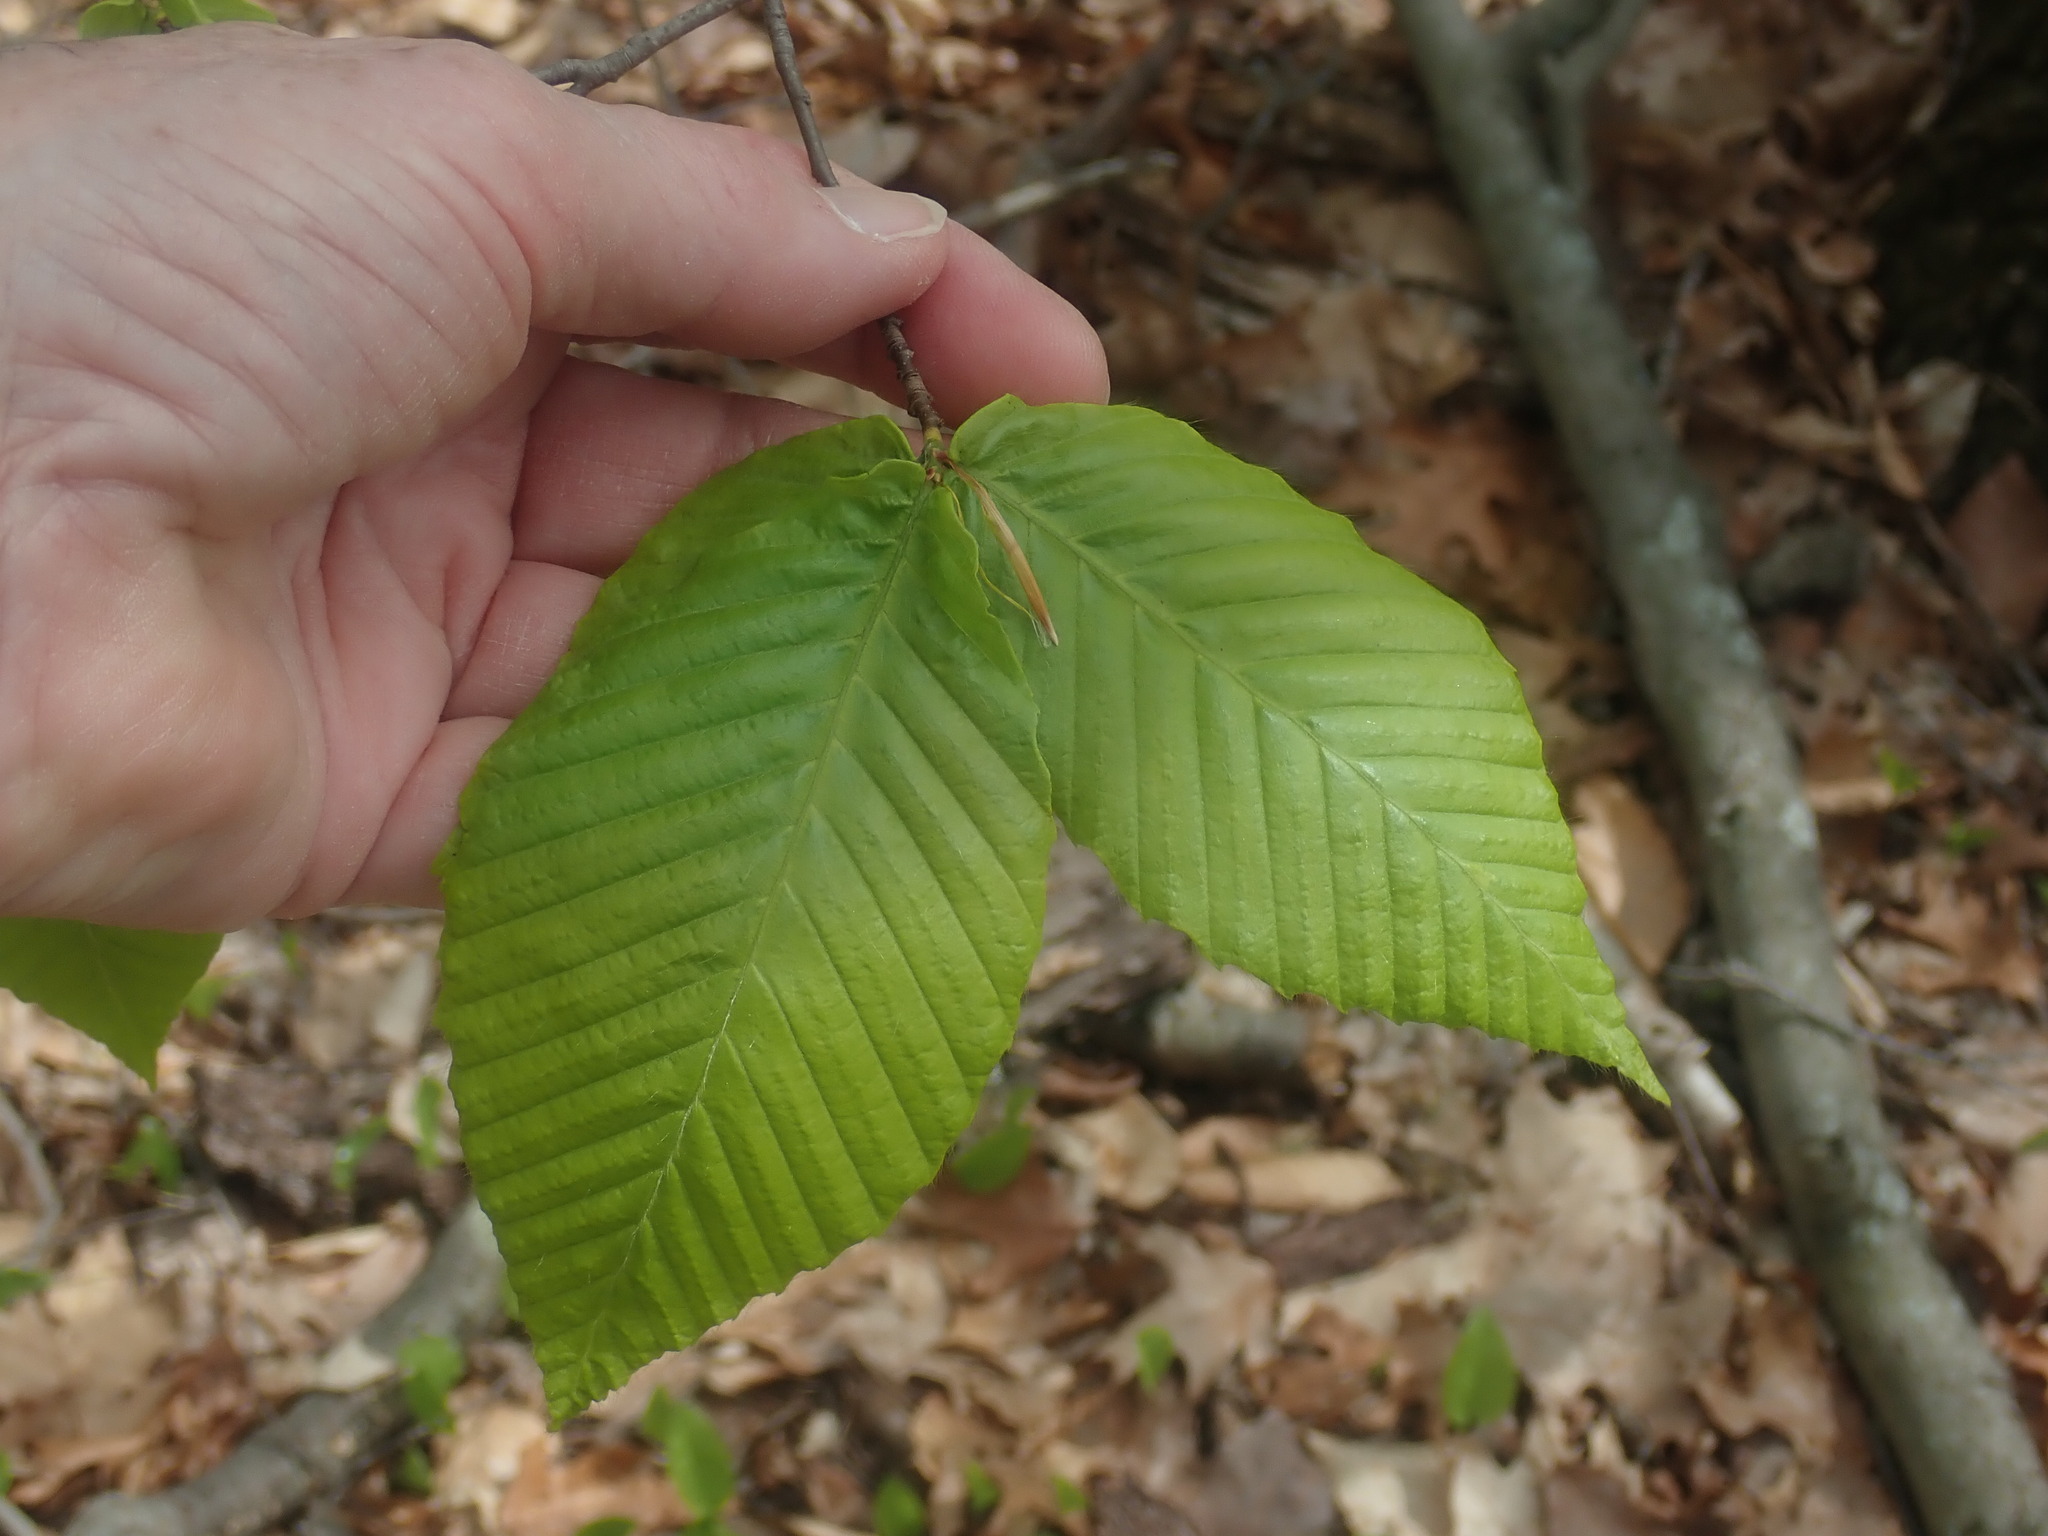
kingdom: Plantae
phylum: Tracheophyta
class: Magnoliopsida
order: Fagales
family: Fagaceae
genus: Fagus
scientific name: Fagus grandifolia
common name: American beech
